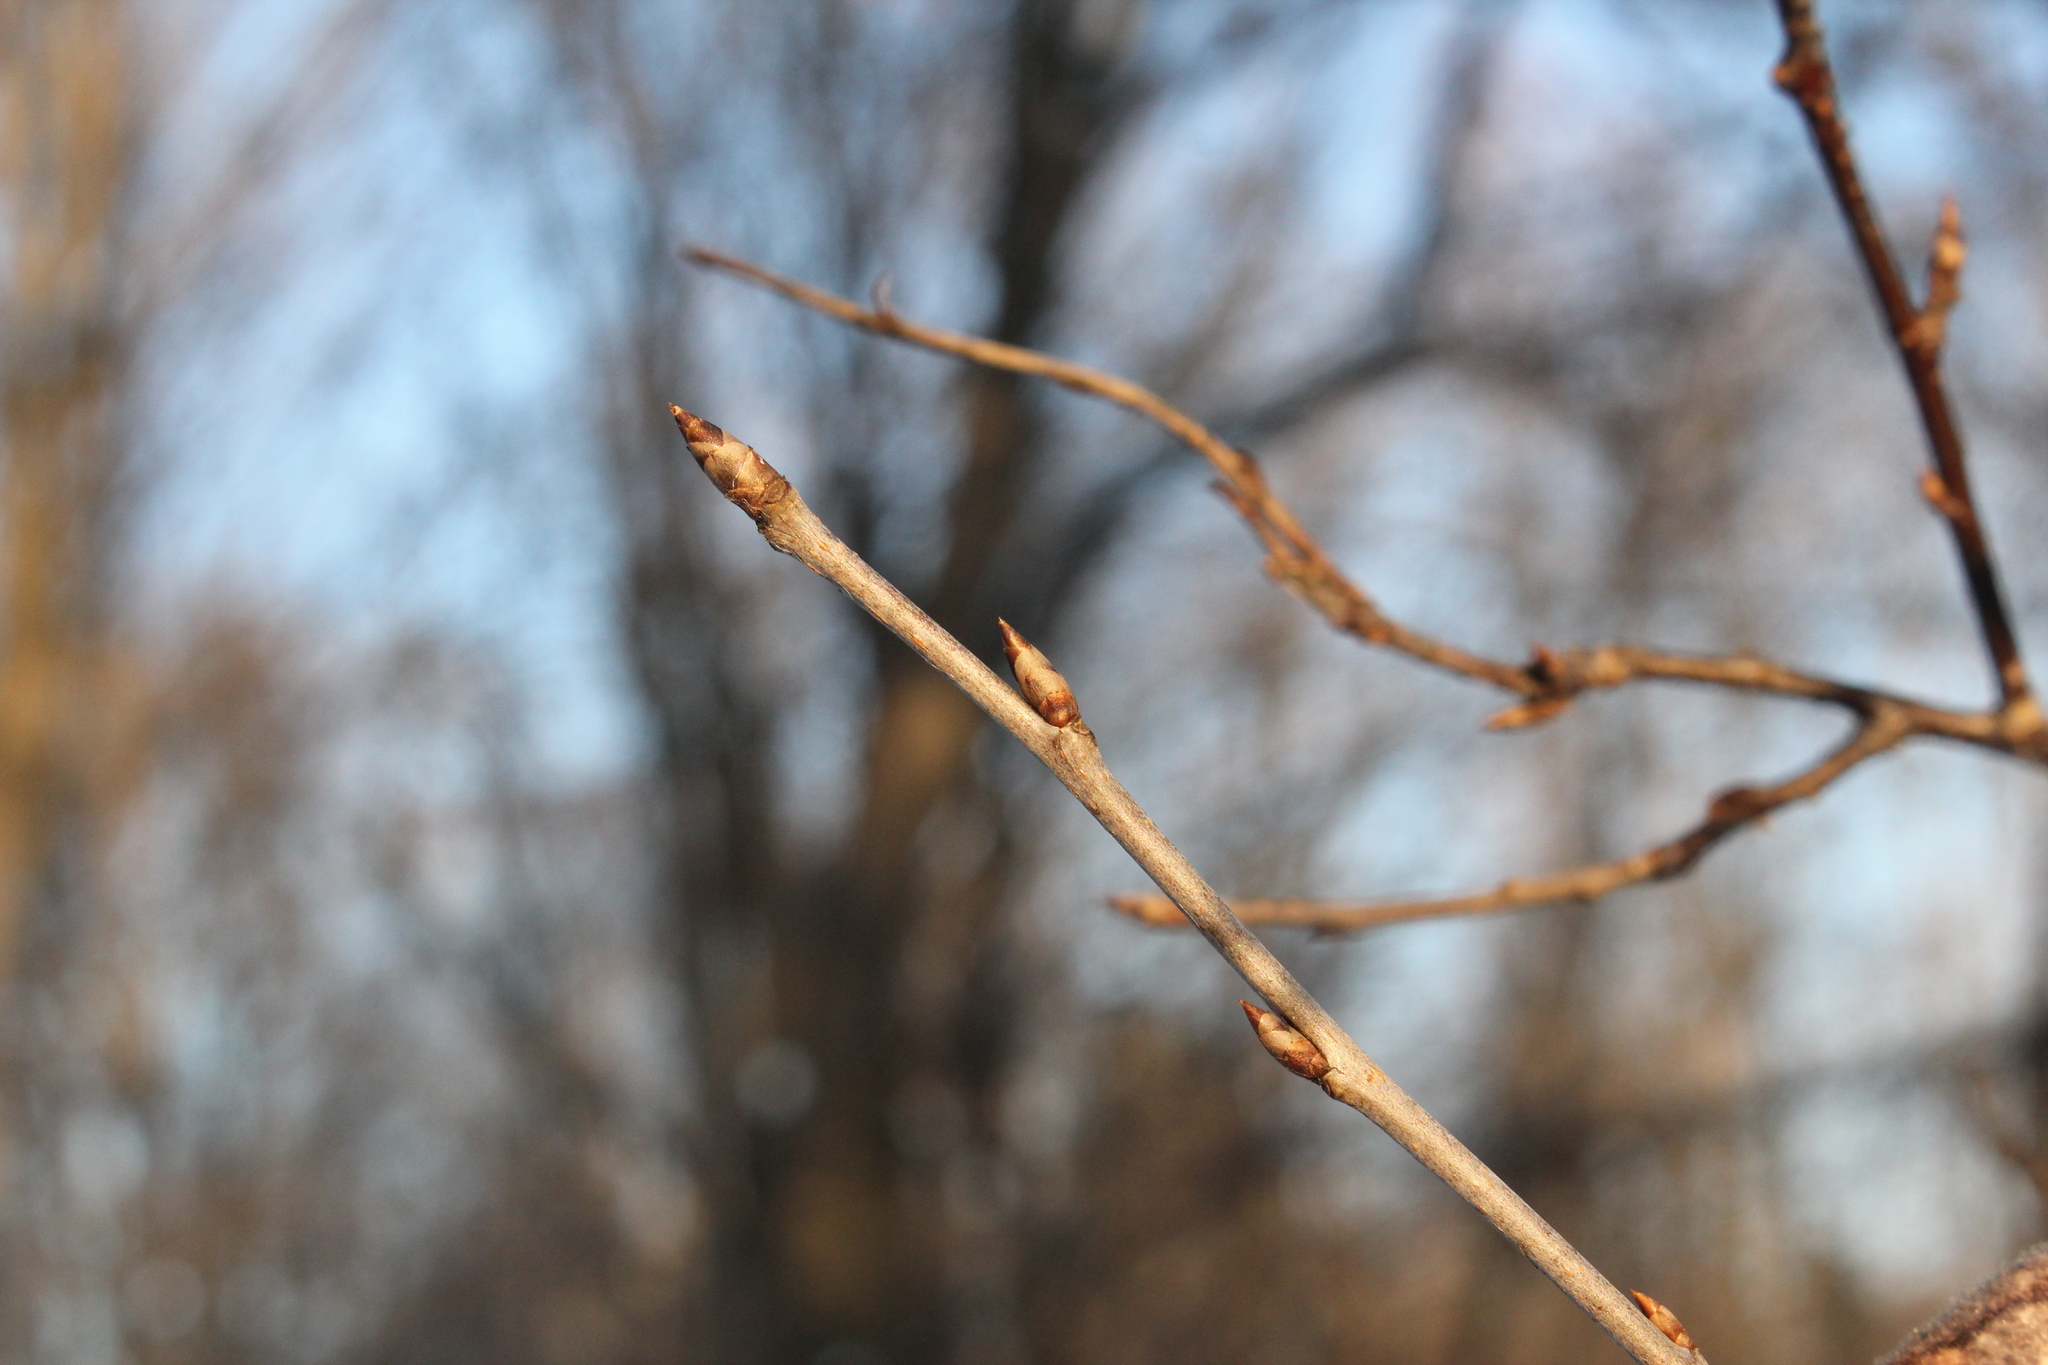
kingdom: Plantae
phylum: Tracheophyta
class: Magnoliopsida
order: Rosales
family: Rosaceae
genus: Prunus
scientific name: Prunus virginiana
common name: Chokecherry
